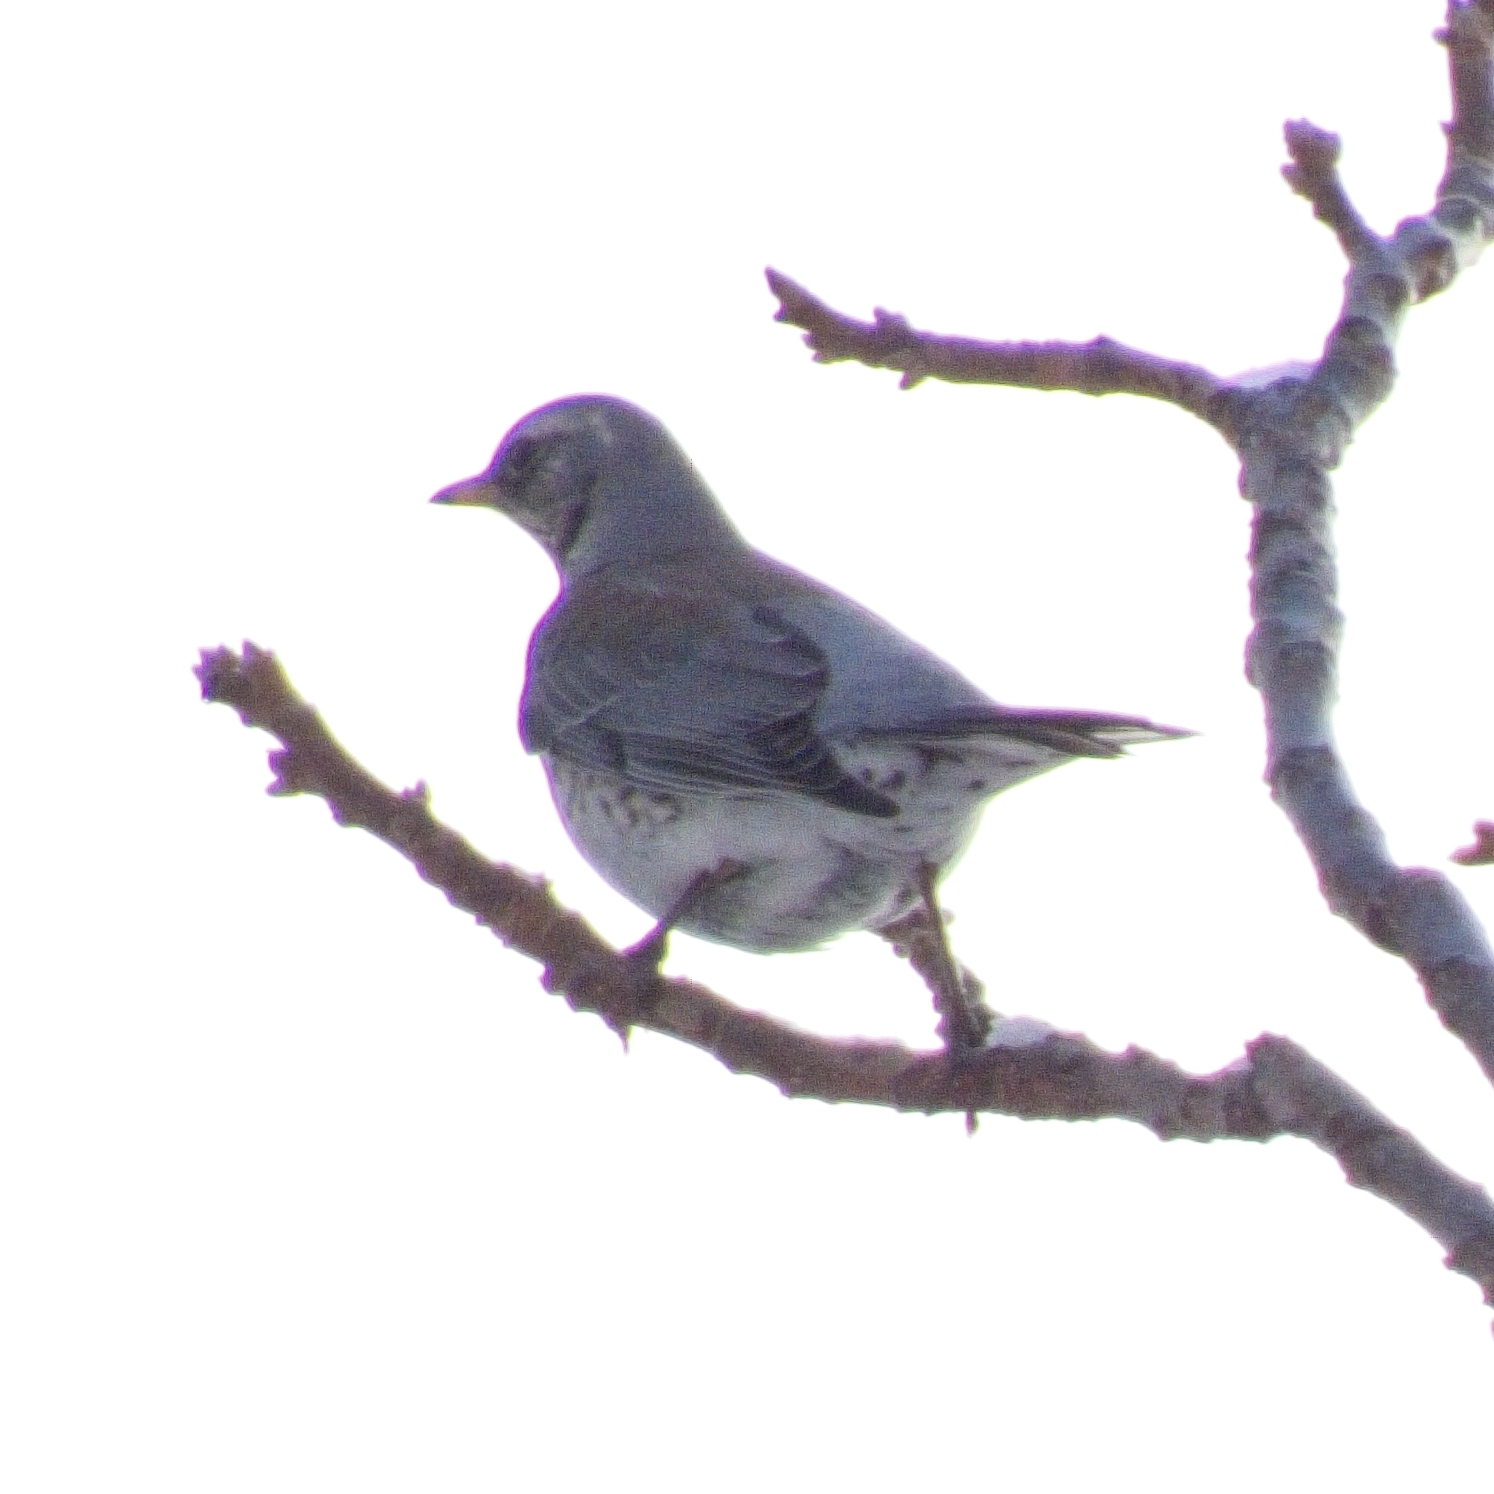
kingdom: Animalia
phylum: Chordata
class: Aves
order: Passeriformes
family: Turdidae
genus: Turdus
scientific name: Turdus pilaris
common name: Fieldfare
